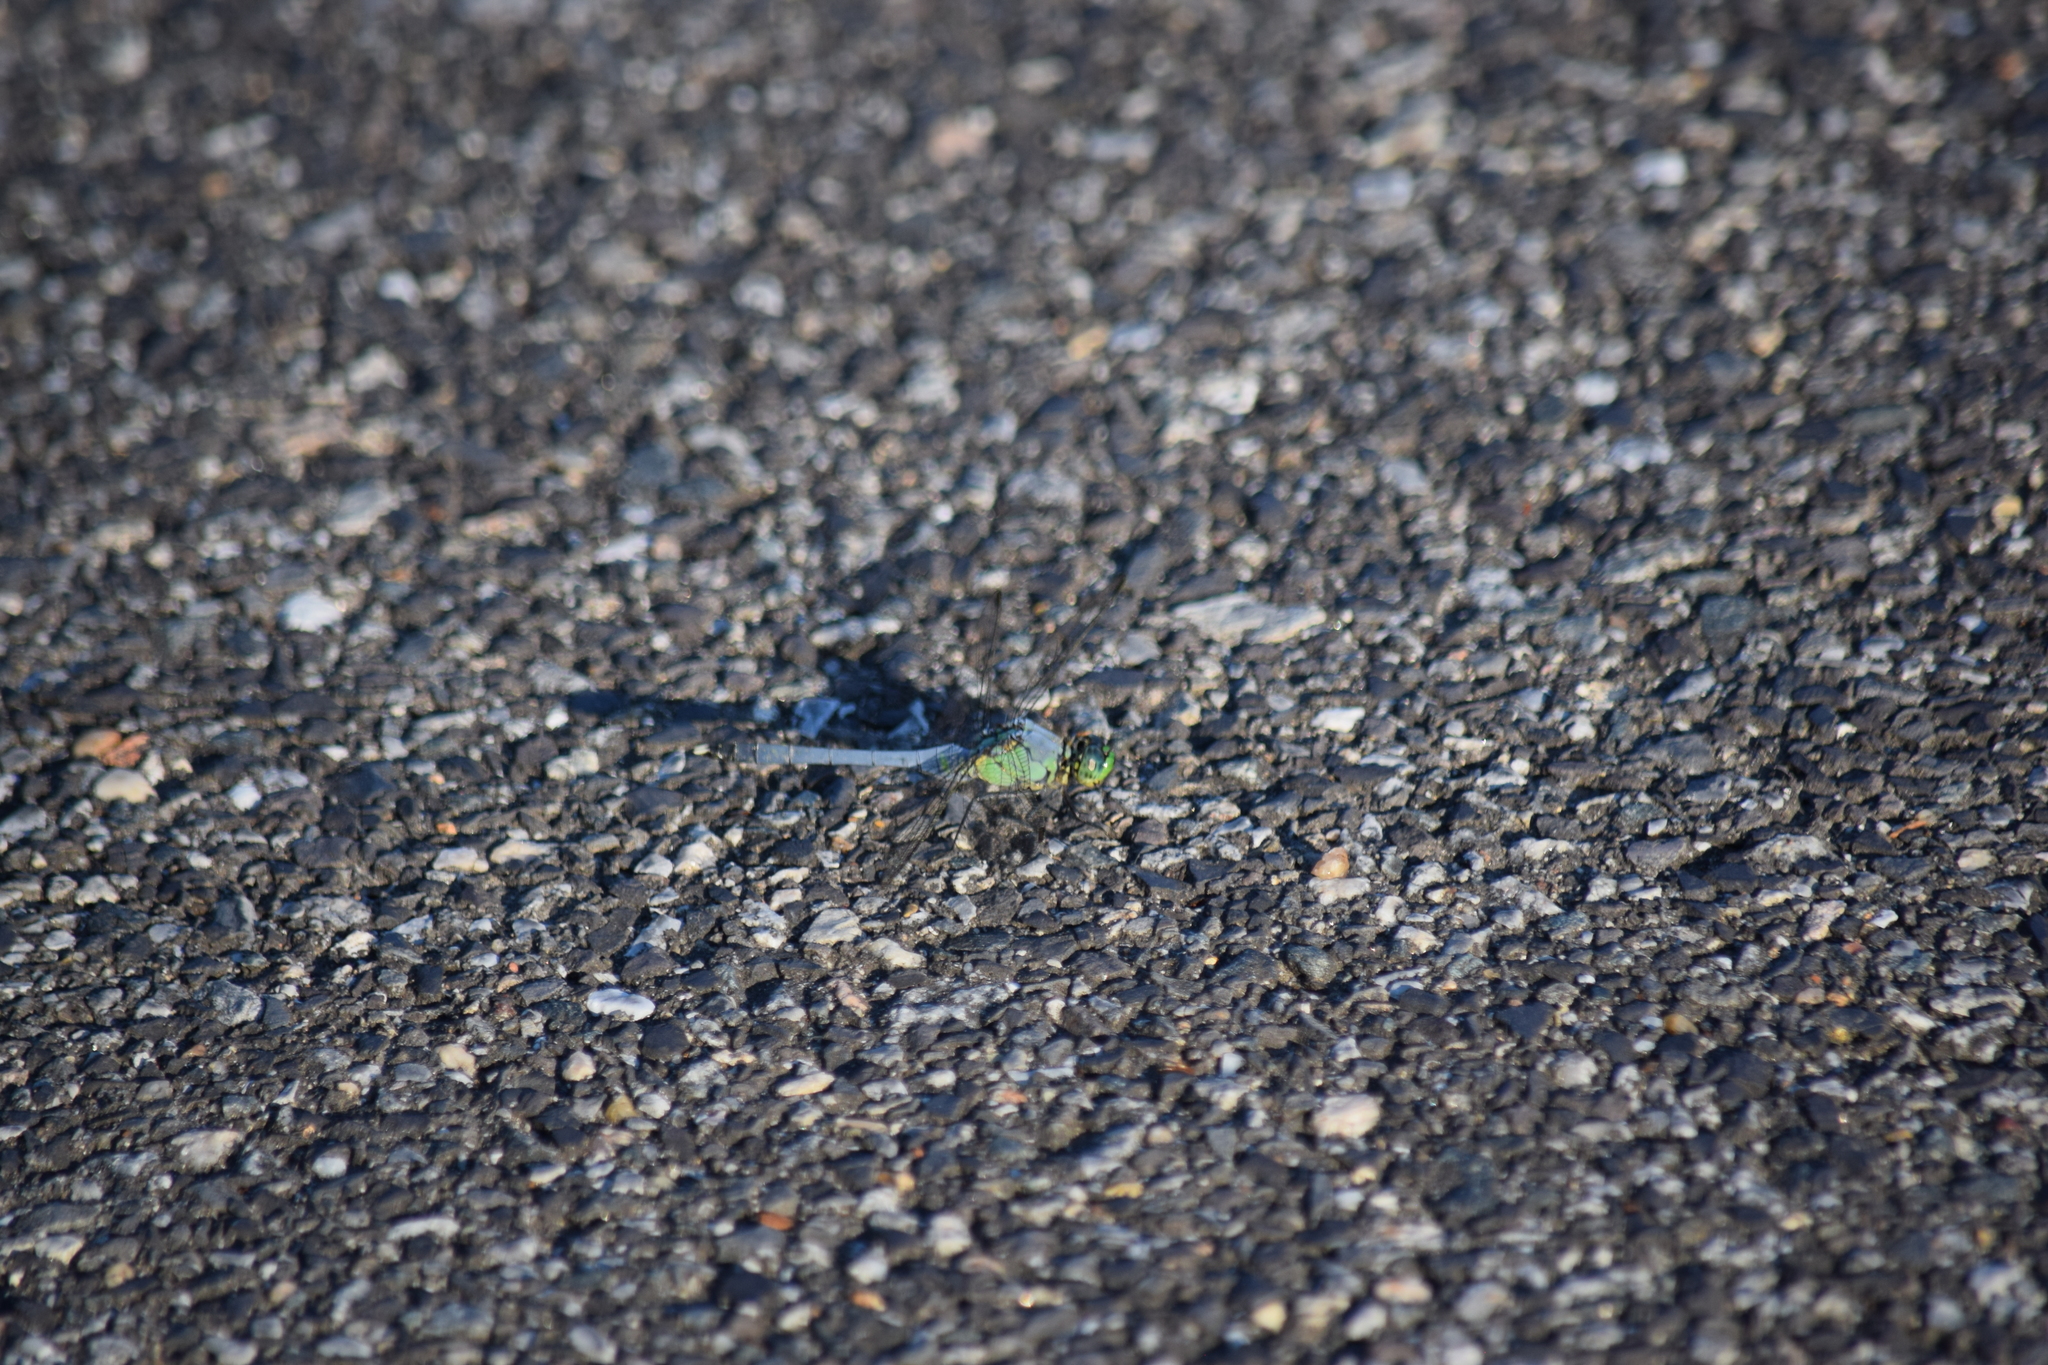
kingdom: Animalia
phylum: Arthropoda
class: Insecta
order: Odonata
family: Libellulidae
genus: Erythemis
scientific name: Erythemis simplicicollis
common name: Eastern pondhawk
